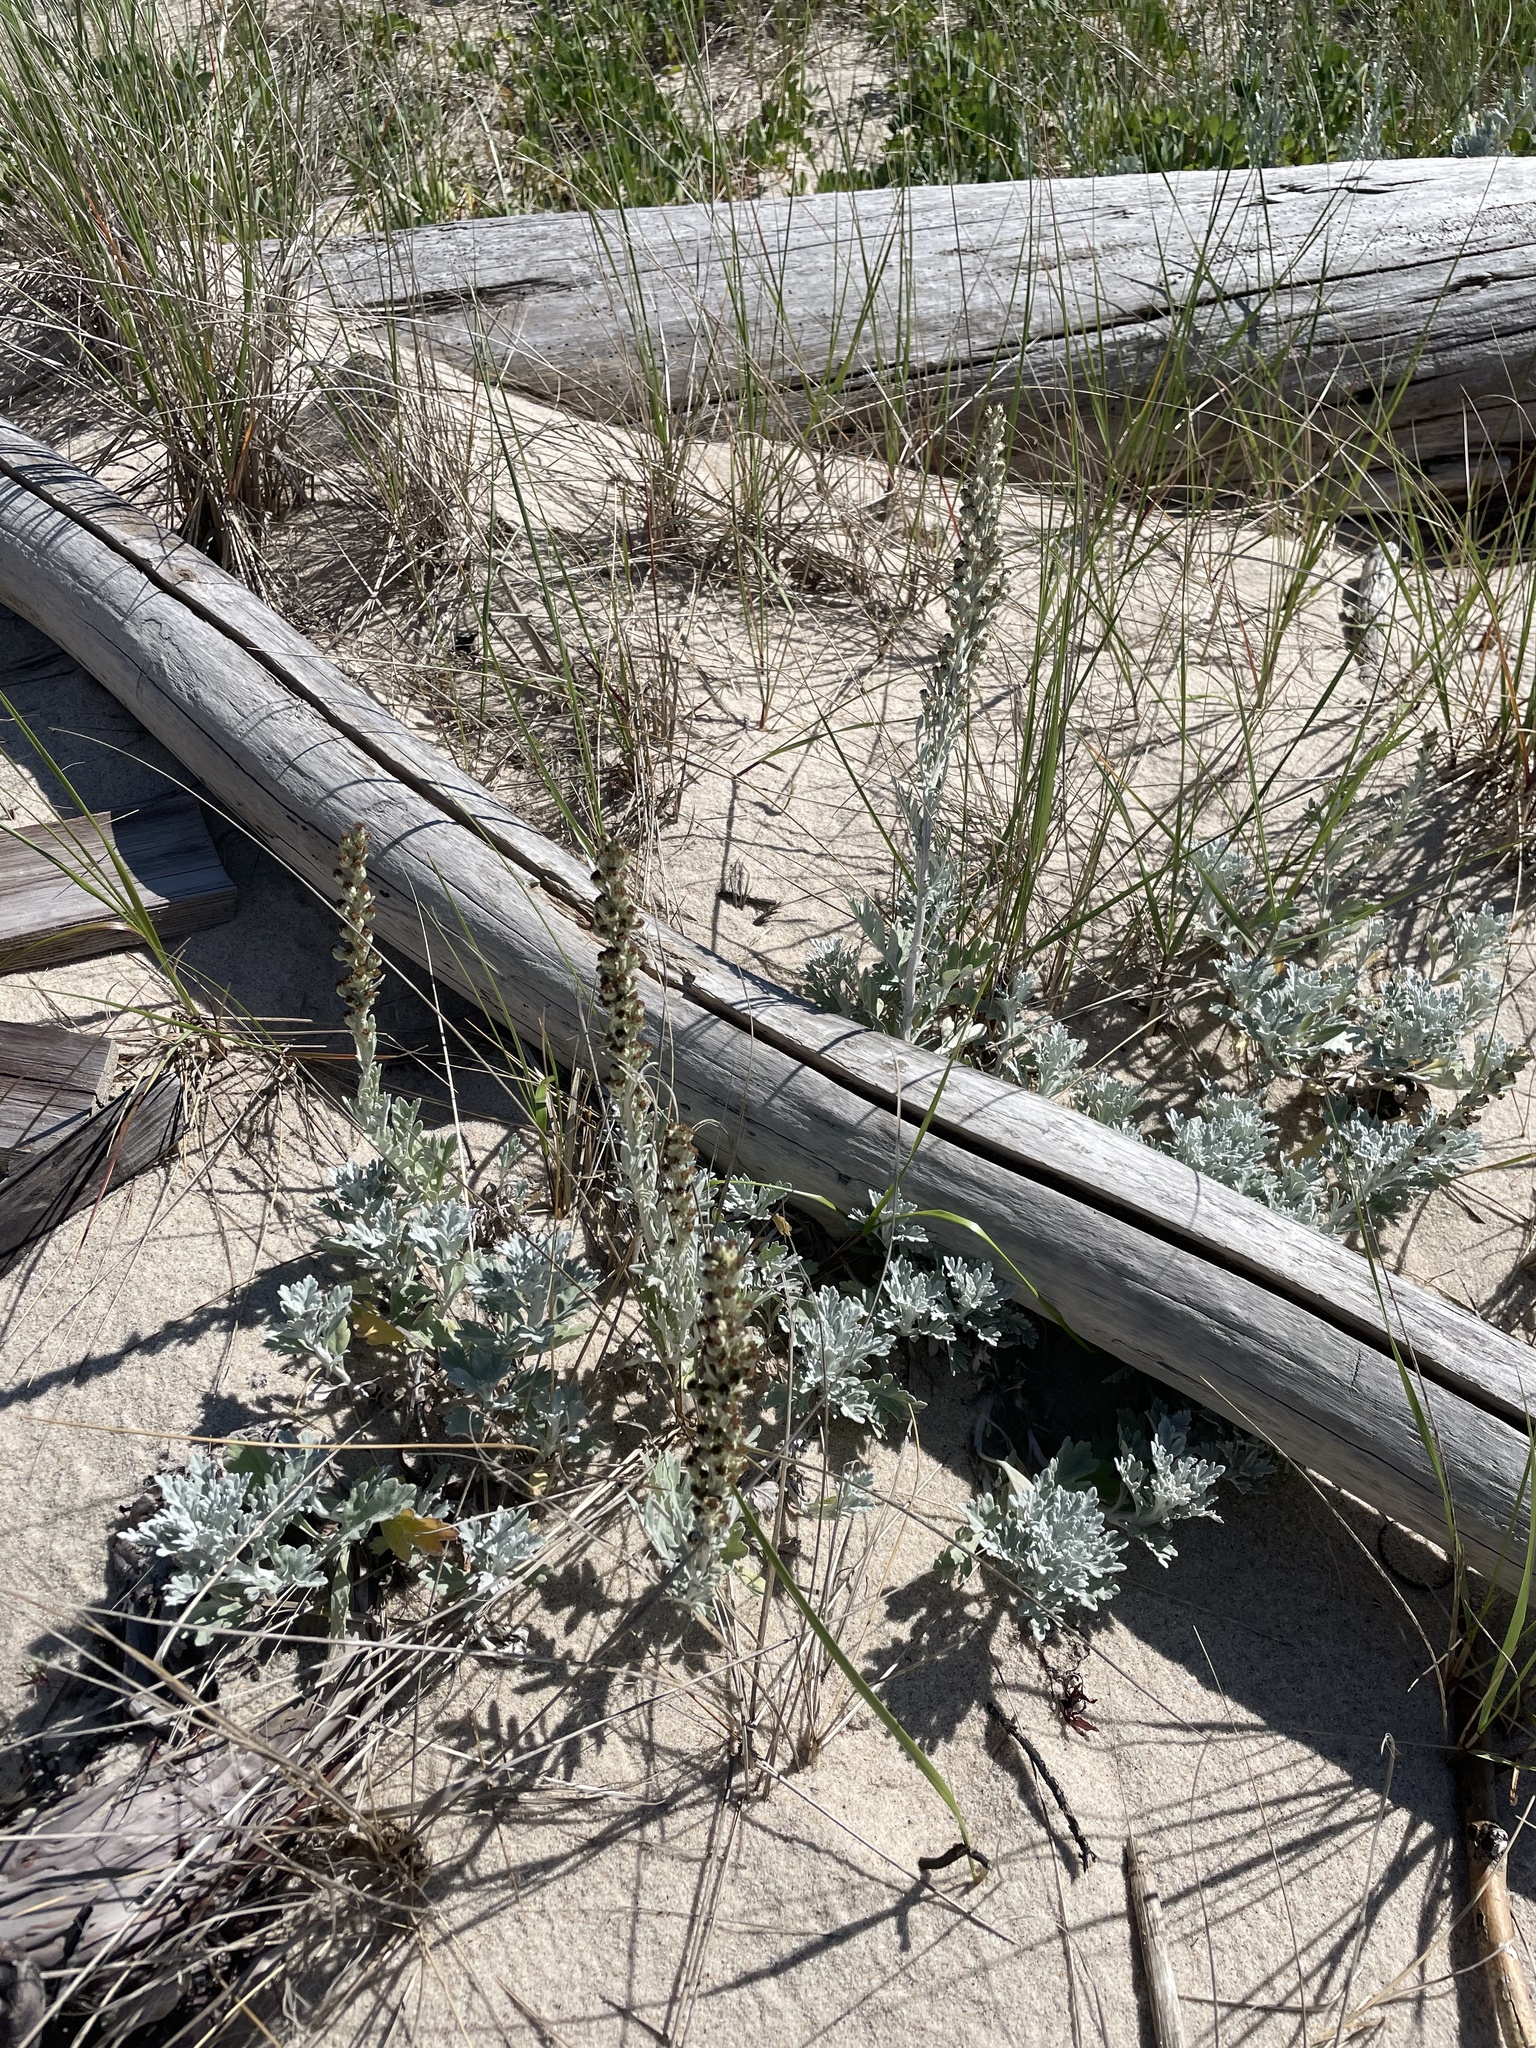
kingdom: Plantae
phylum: Tracheophyta
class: Magnoliopsida
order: Asterales
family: Asteraceae
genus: Artemisia
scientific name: Artemisia stelleriana
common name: Beach wormwood
